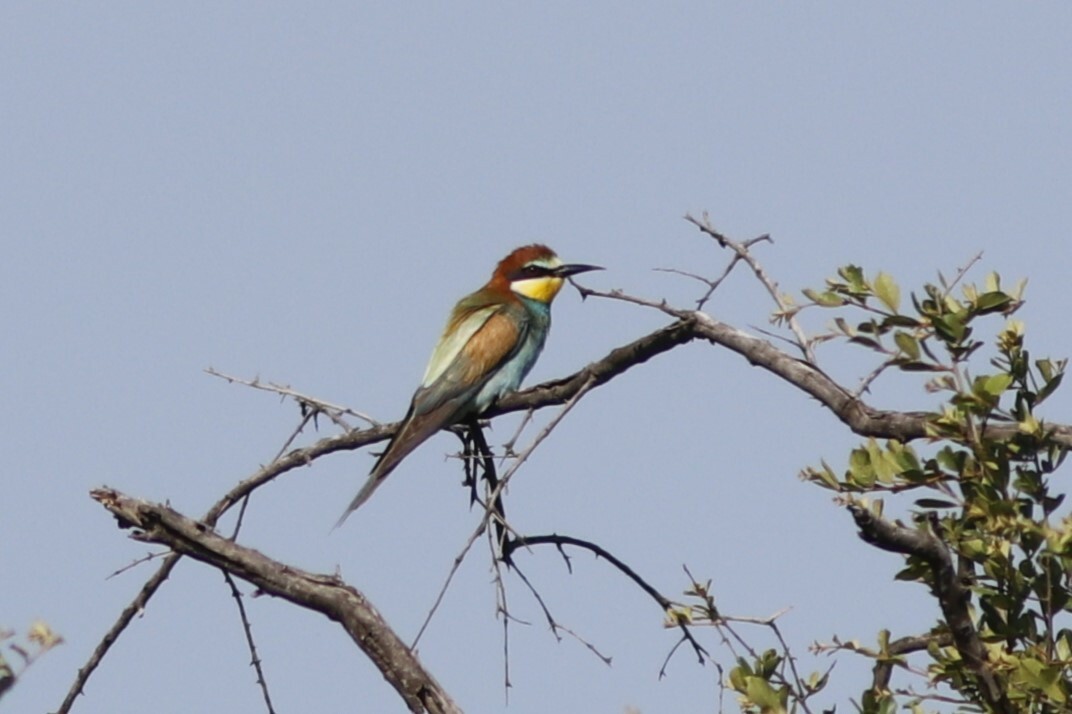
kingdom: Animalia
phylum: Chordata
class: Aves
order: Coraciiformes
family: Meropidae
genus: Merops
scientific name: Merops apiaster
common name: European bee-eater
